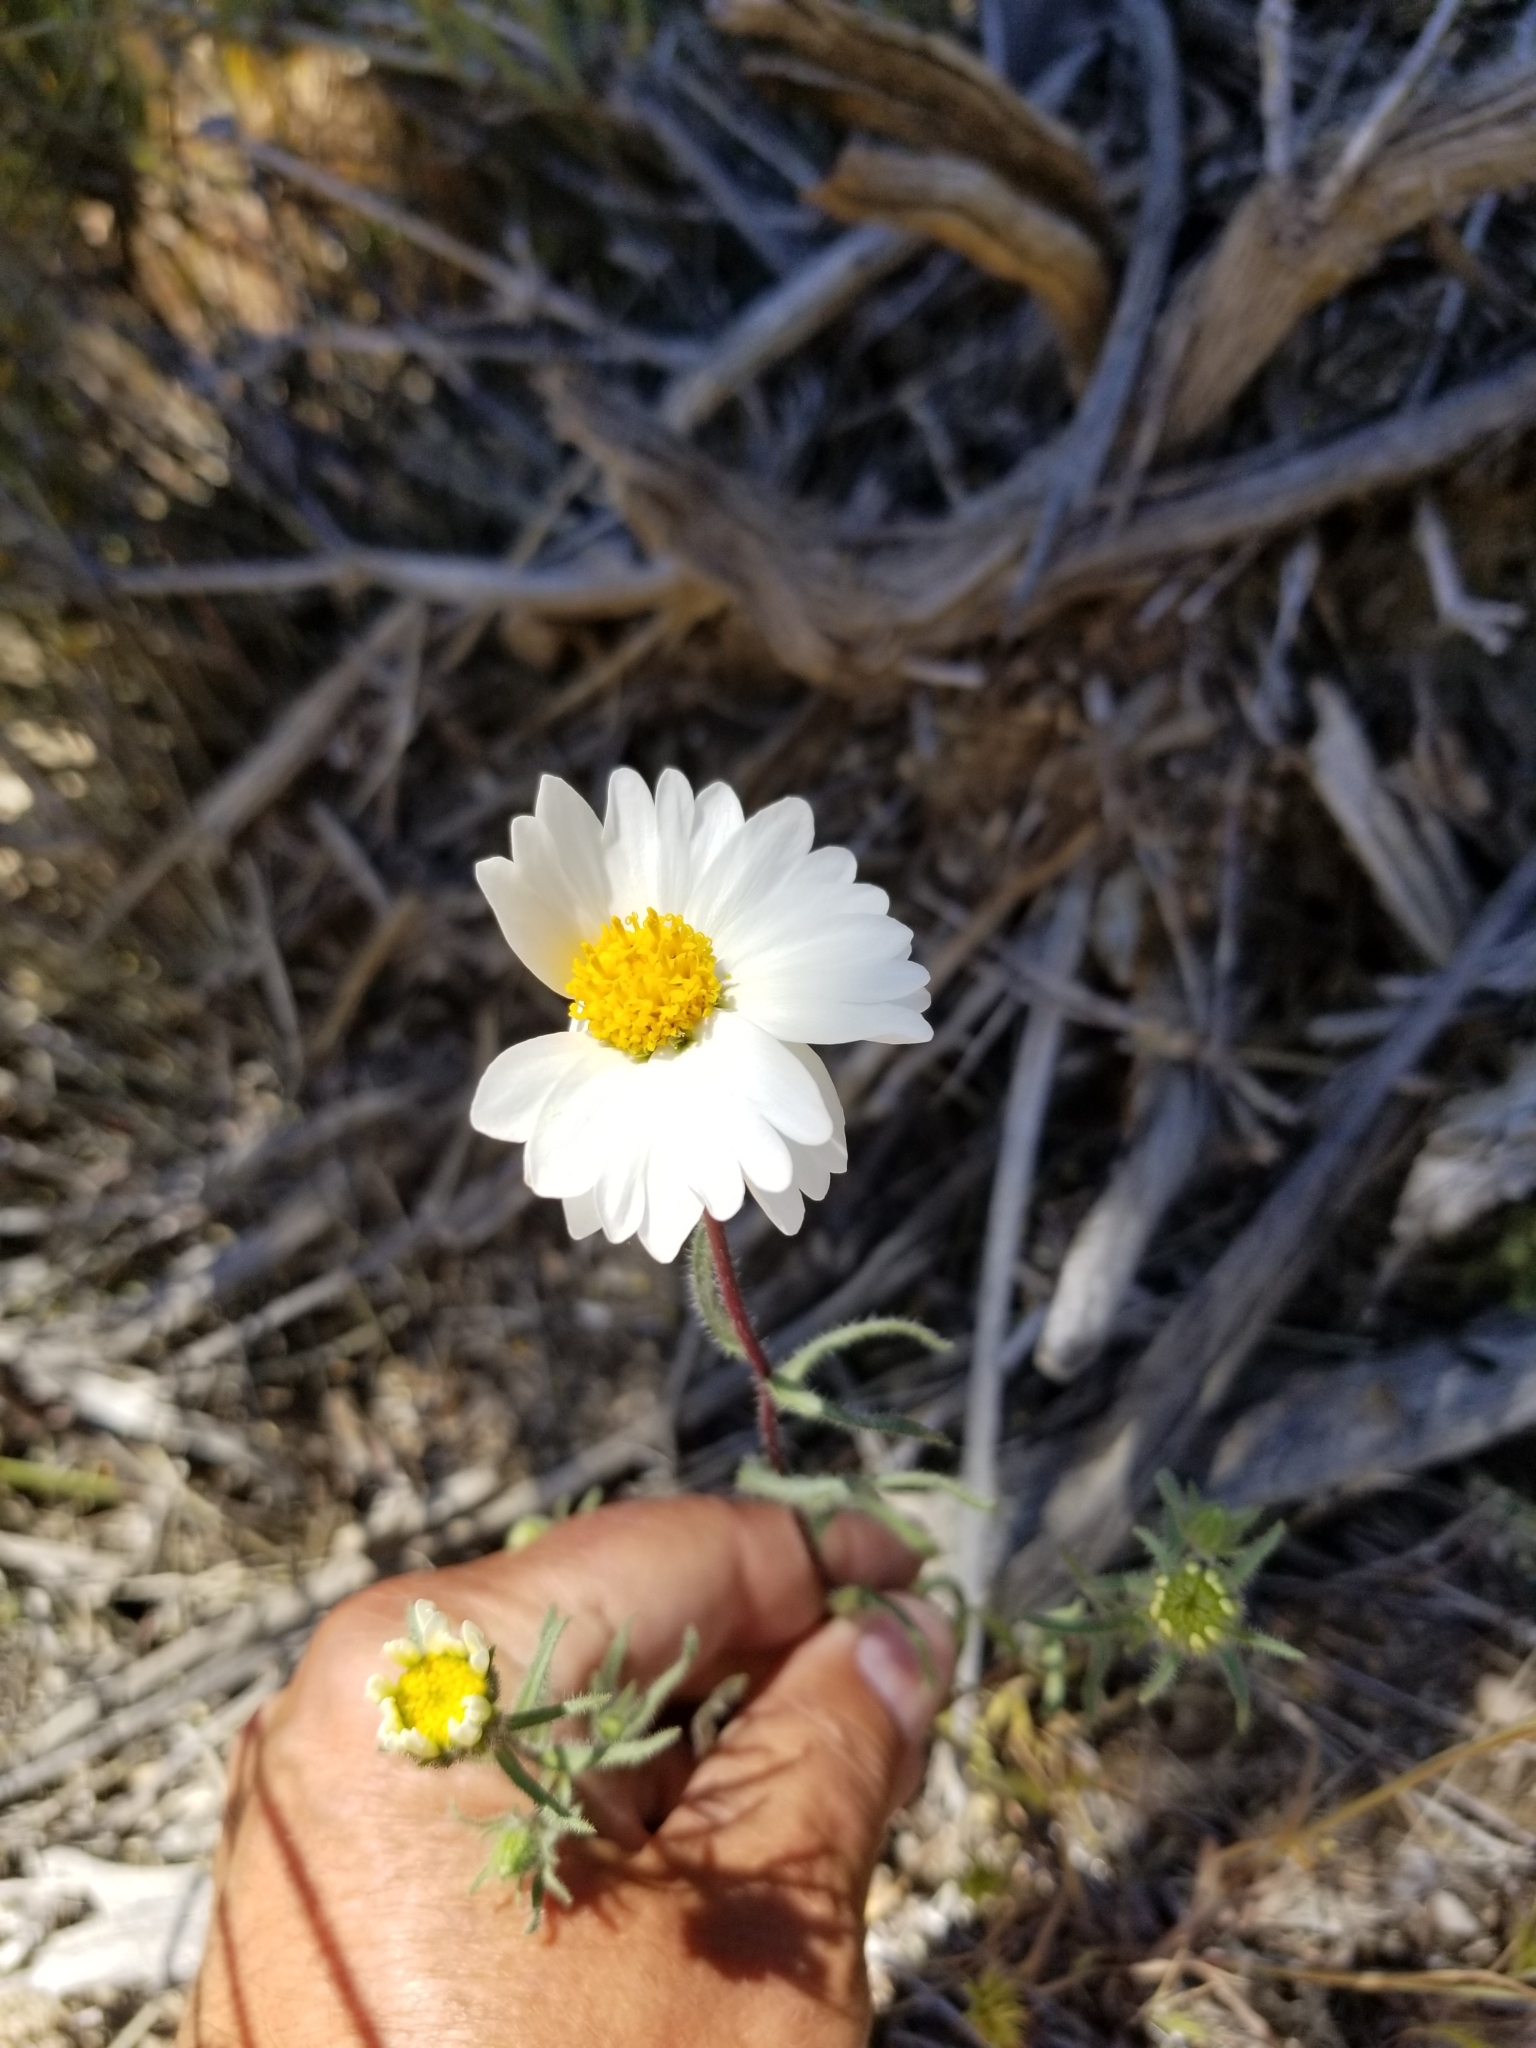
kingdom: Plantae
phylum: Tracheophyta
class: Magnoliopsida
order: Asterales
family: Asteraceae
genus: Layia
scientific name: Layia glandulosa
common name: White layia
